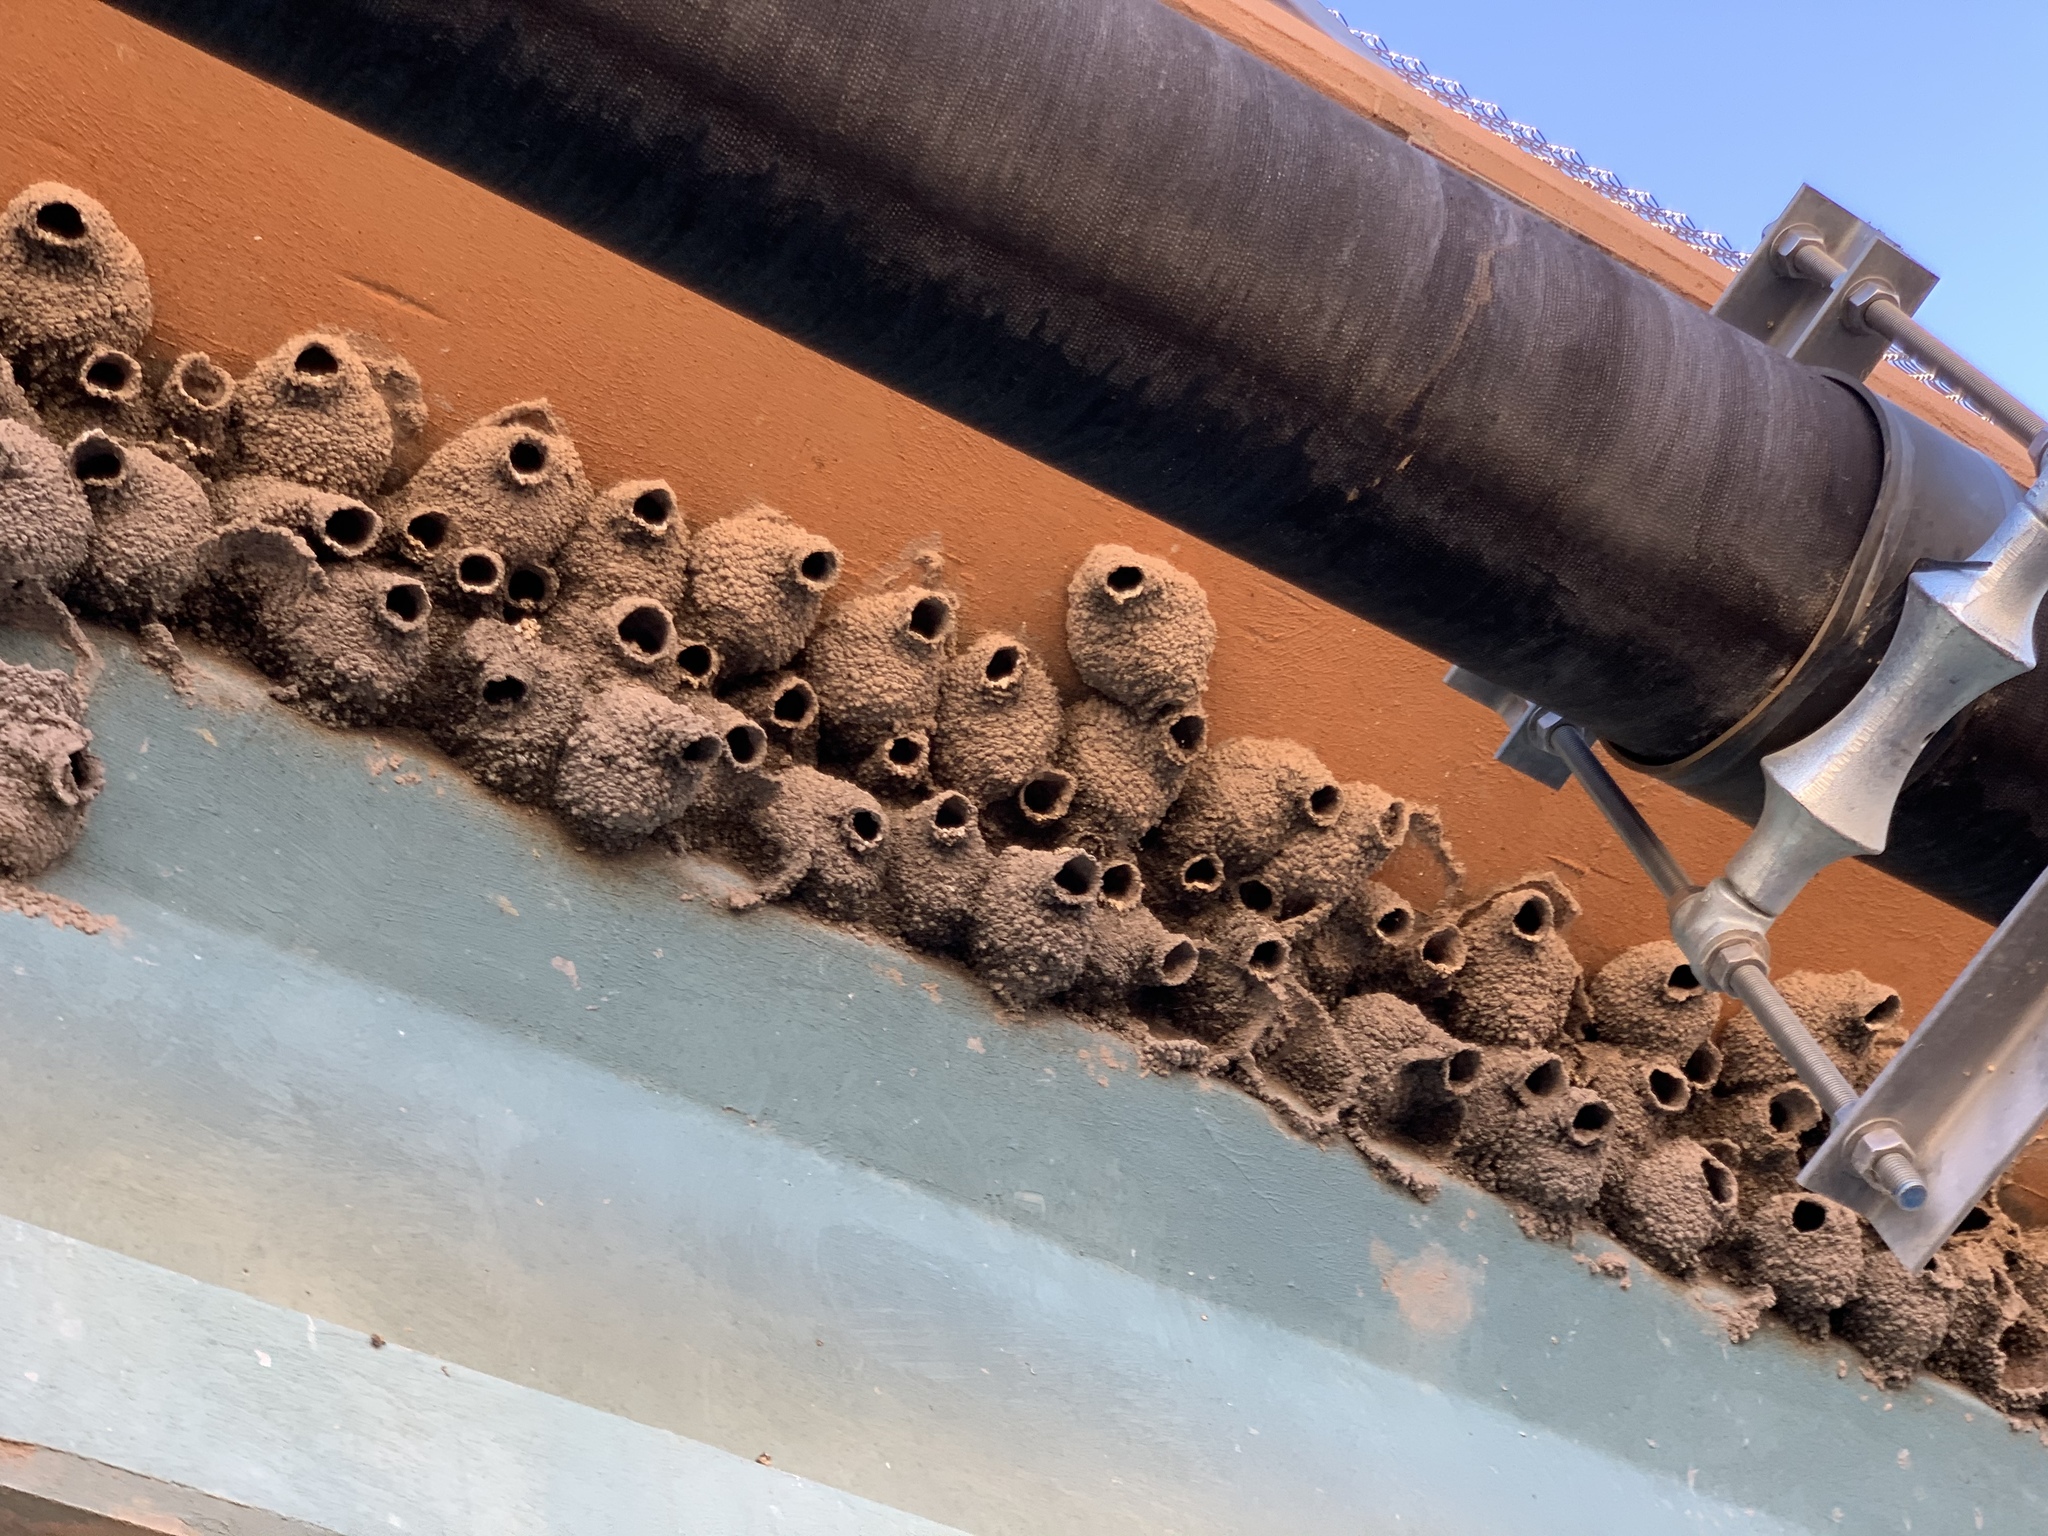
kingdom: Animalia
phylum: Chordata
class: Aves
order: Passeriformes
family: Hirundinidae
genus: Petrochelidon
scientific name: Petrochelidon pyrrhonota
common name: American cliff swallow
